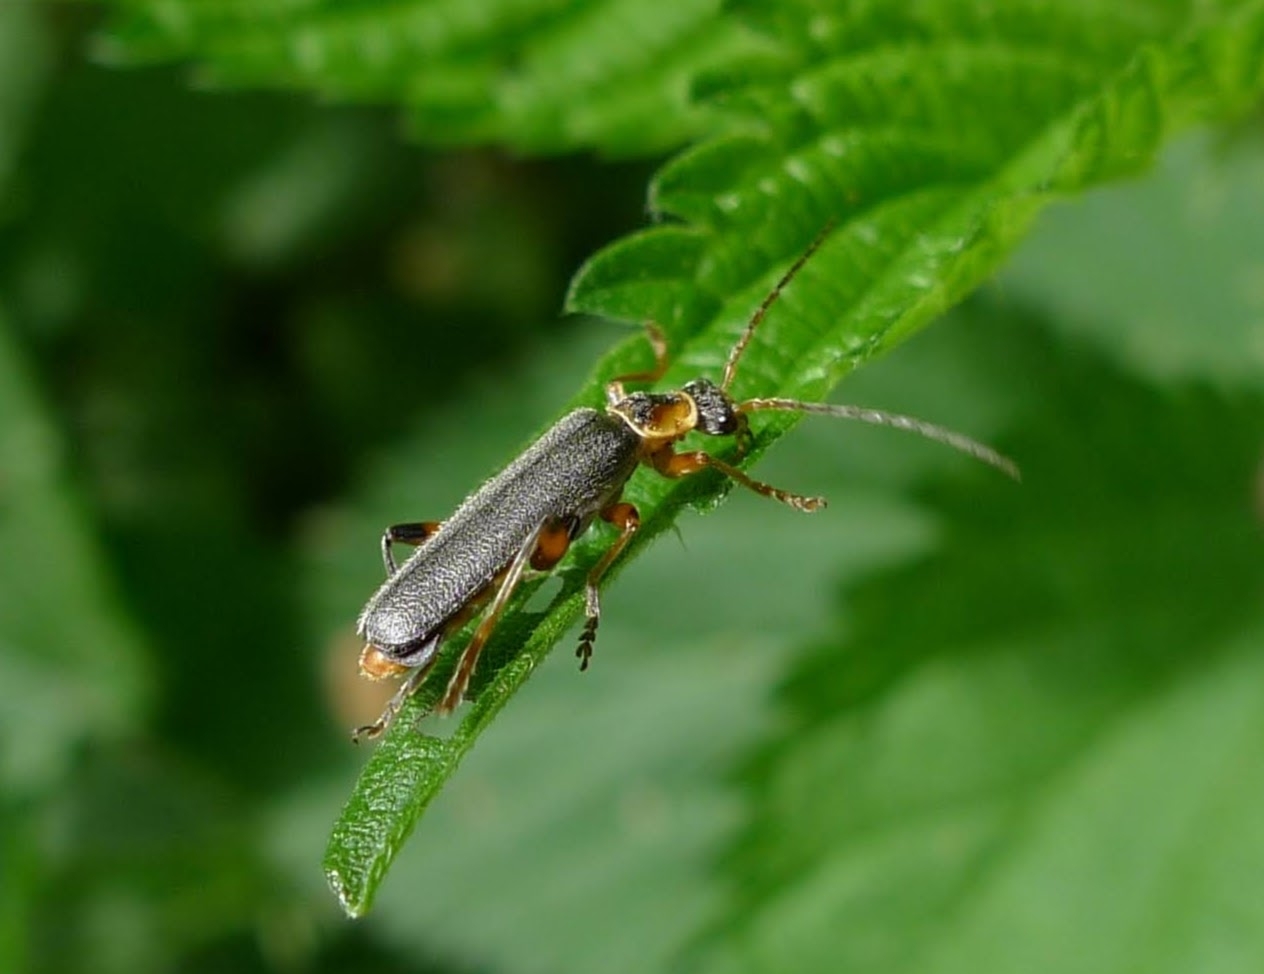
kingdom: Animalia
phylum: Arthropoda
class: Insecta
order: Coleoptera
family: Cantharidae
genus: Cantharis
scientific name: Cantharis nigricans
